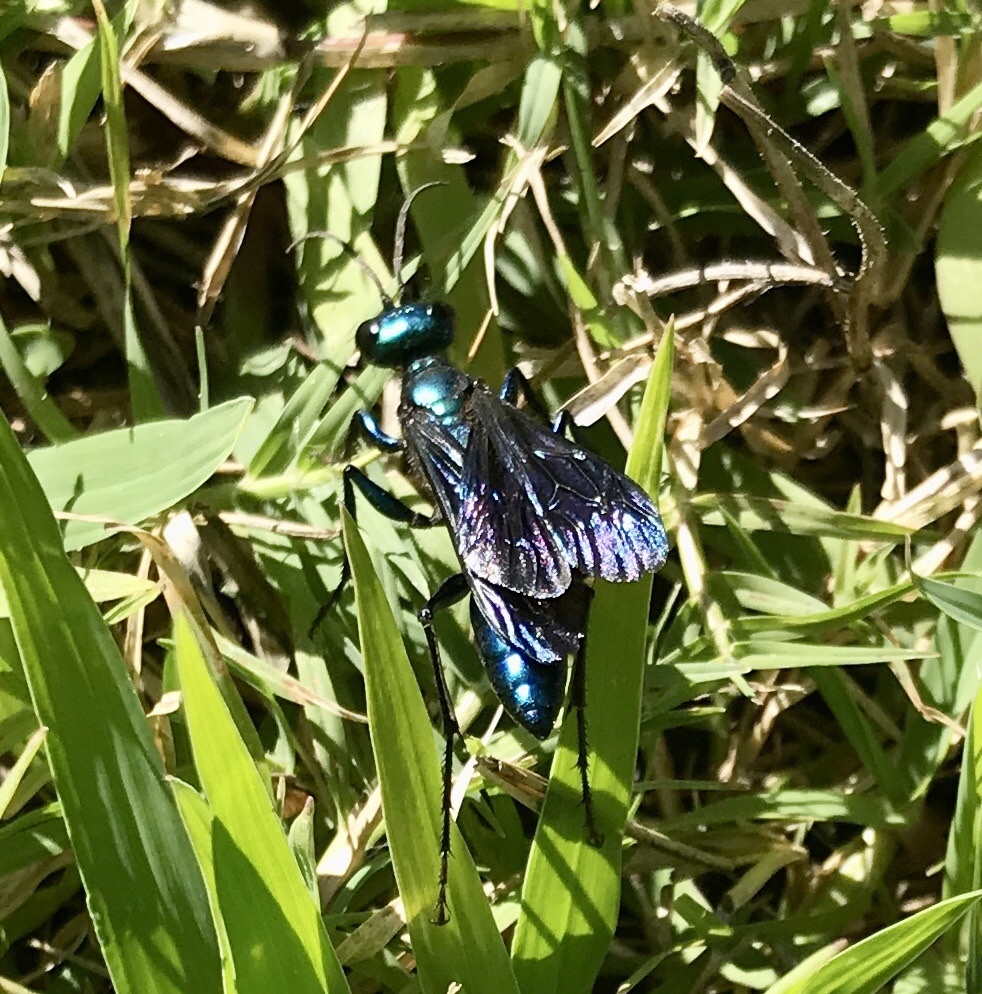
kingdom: Animalia
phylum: Arthropoda
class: Insecta
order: Hymenoptera
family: Sphecidae
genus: Chlorion
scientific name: Chlorion aerarium
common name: Steel-blue cricket hunter
